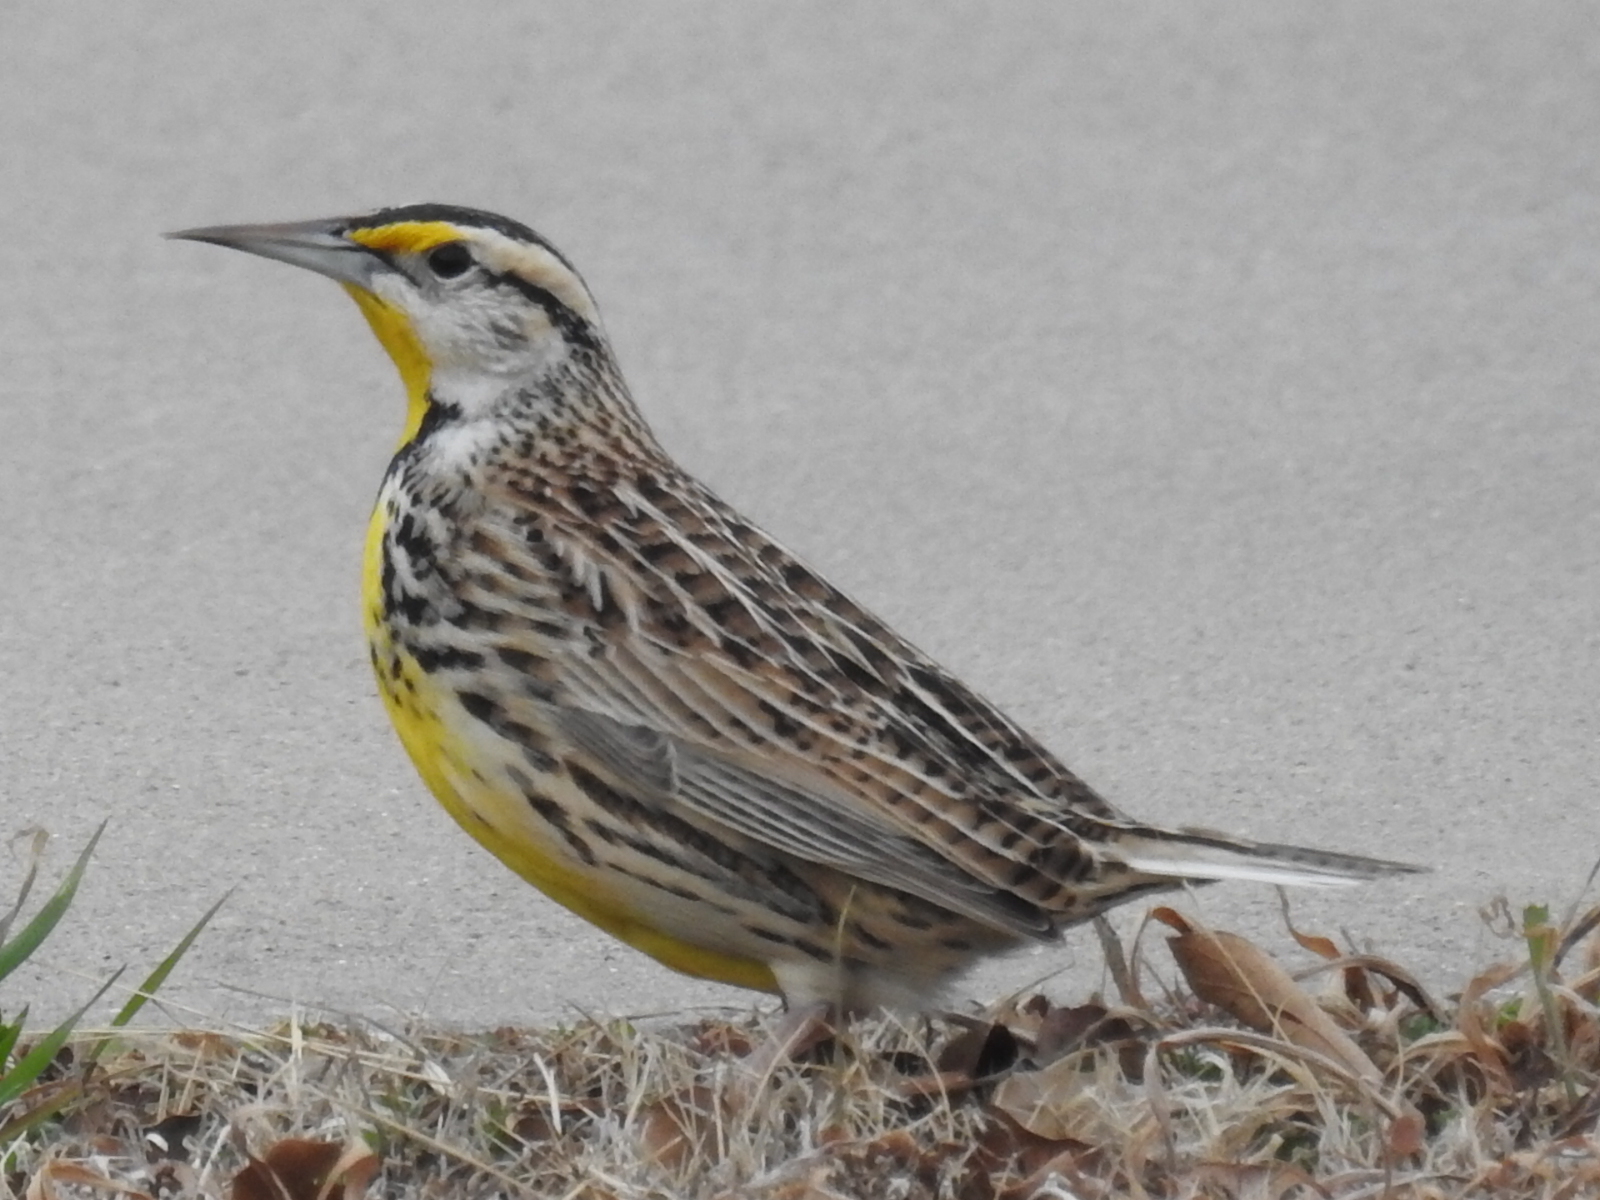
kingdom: Animalia
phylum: Chordata
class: Aves
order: Passeriformes
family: Icteridae
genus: Sturnella
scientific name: Sturnella magna
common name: Eastern meadowlark
